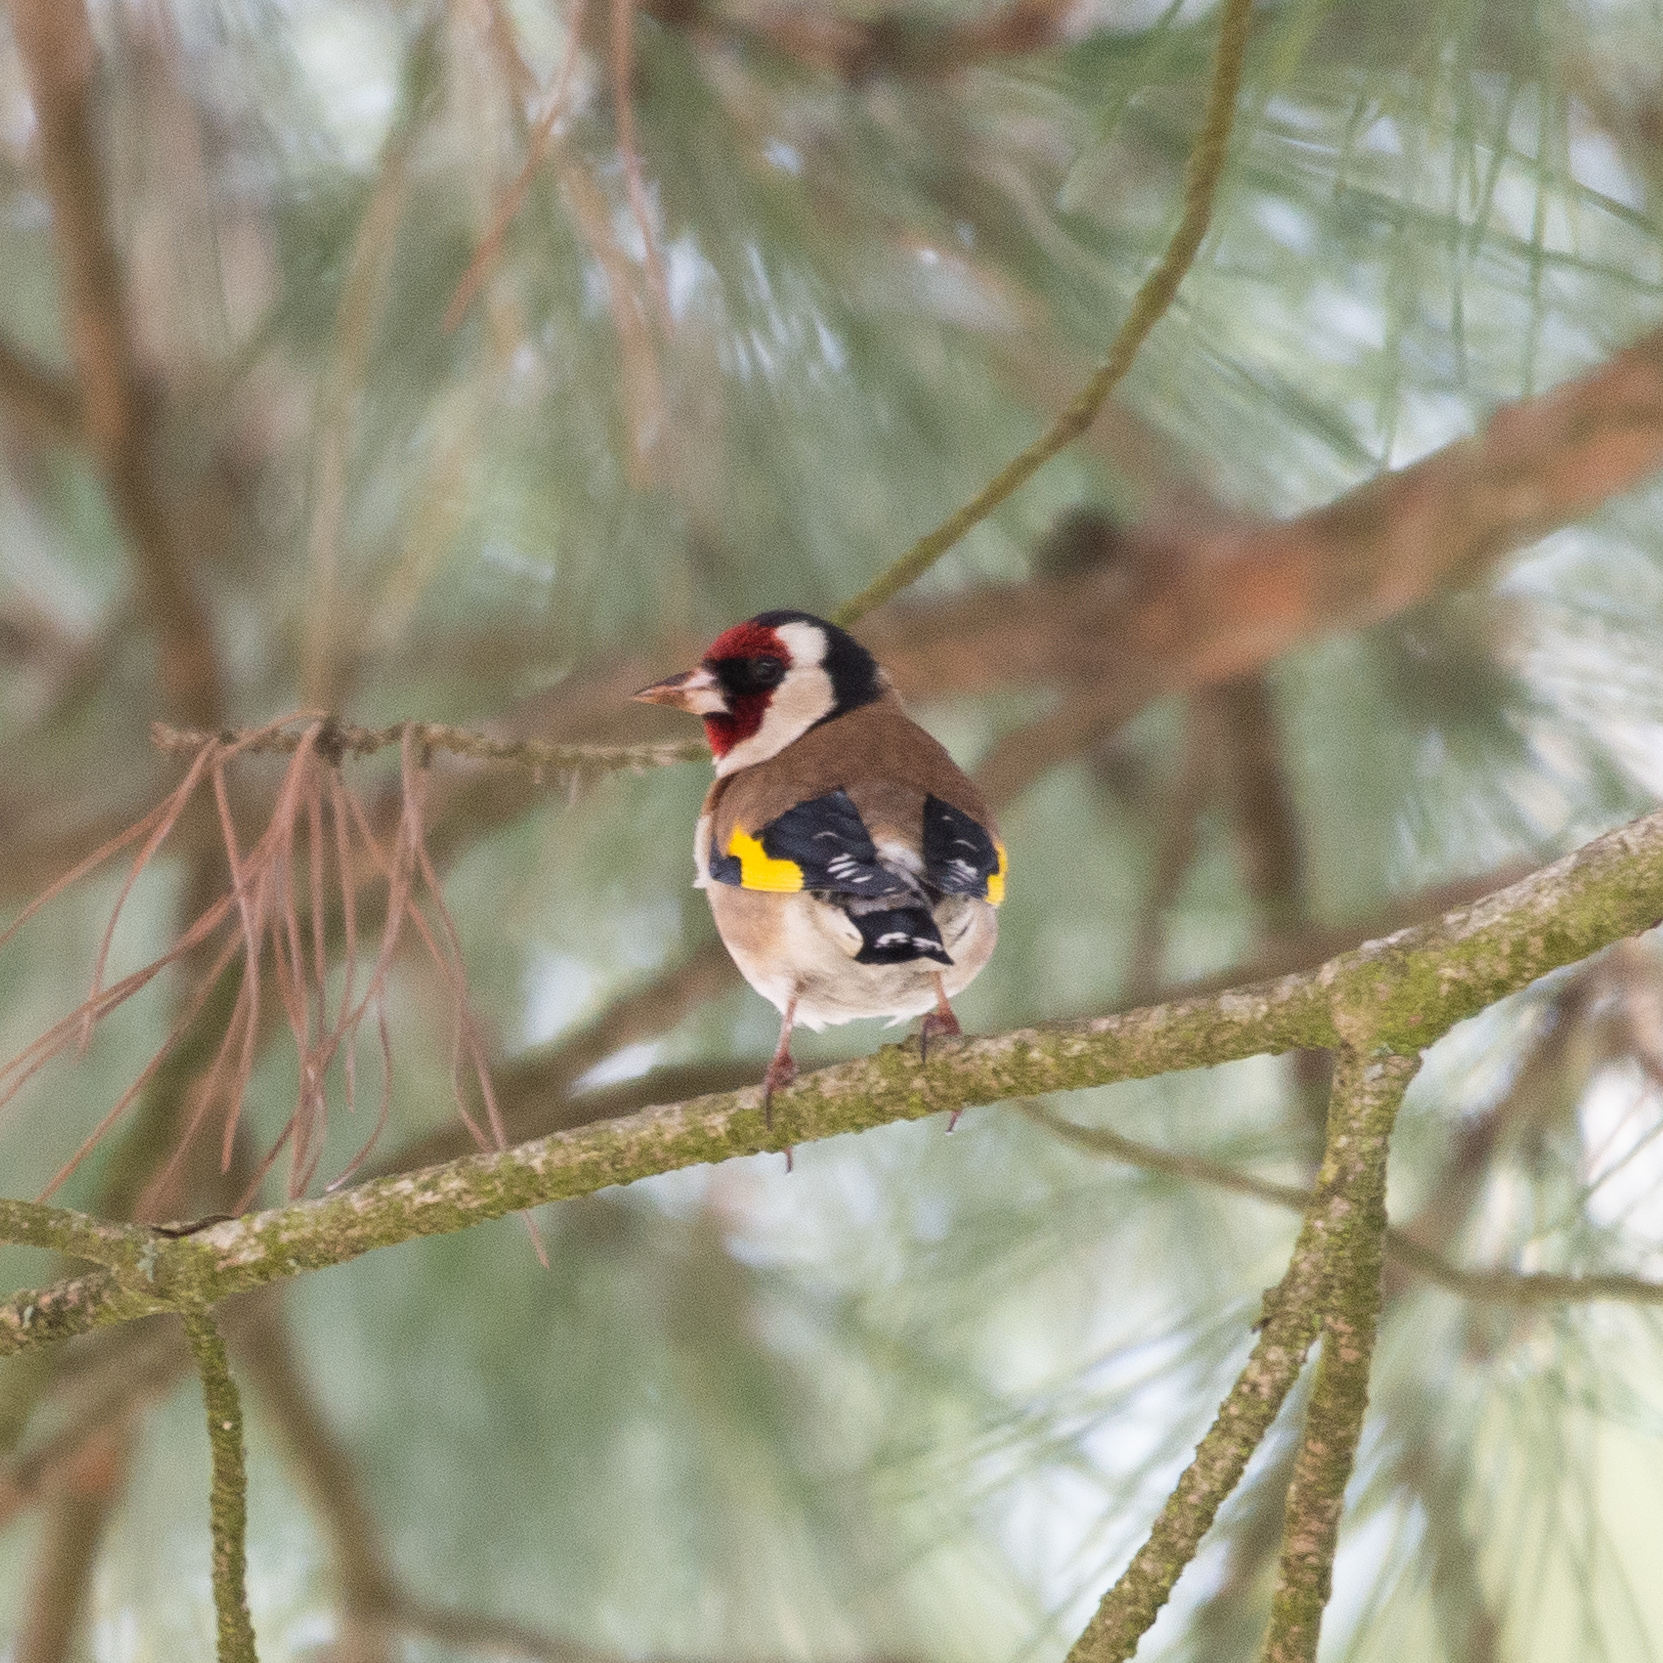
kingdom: Animalia
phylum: Chordata
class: Aves
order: Passeriformes
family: Fringillidae
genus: Carduelis
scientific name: Carduelis carduelis
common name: European goldfinch
